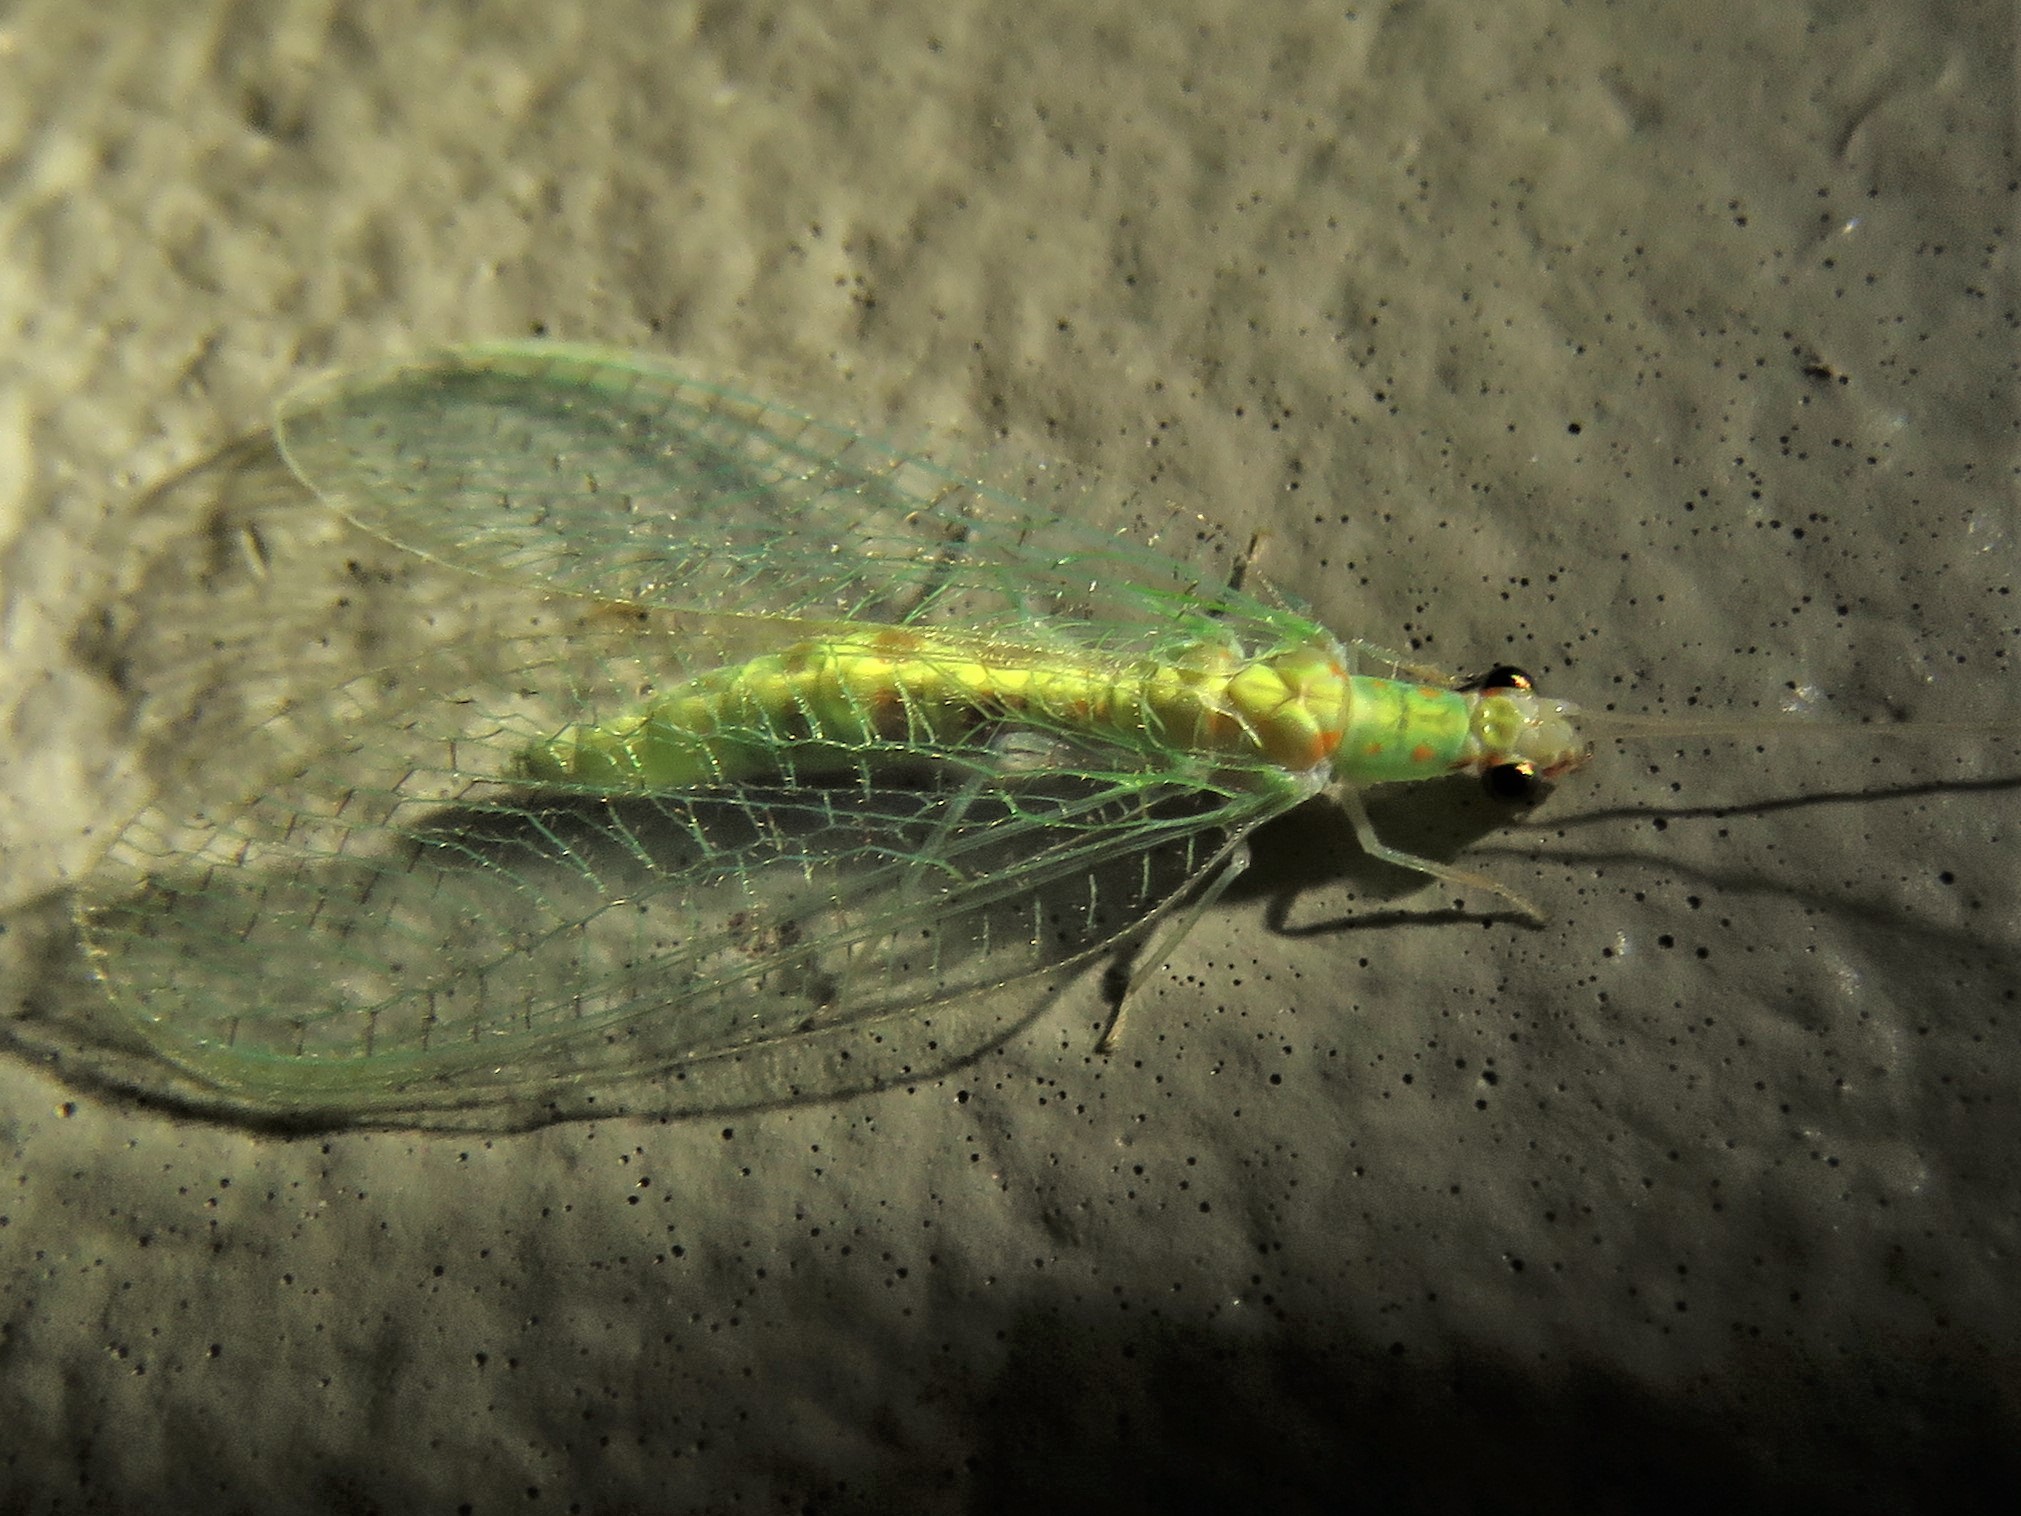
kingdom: Animalia
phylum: Arthropoda
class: Insecta
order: Neuroptera
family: Chrysopidae
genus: Chrysopa
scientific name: Chrysopa quadripunctata
